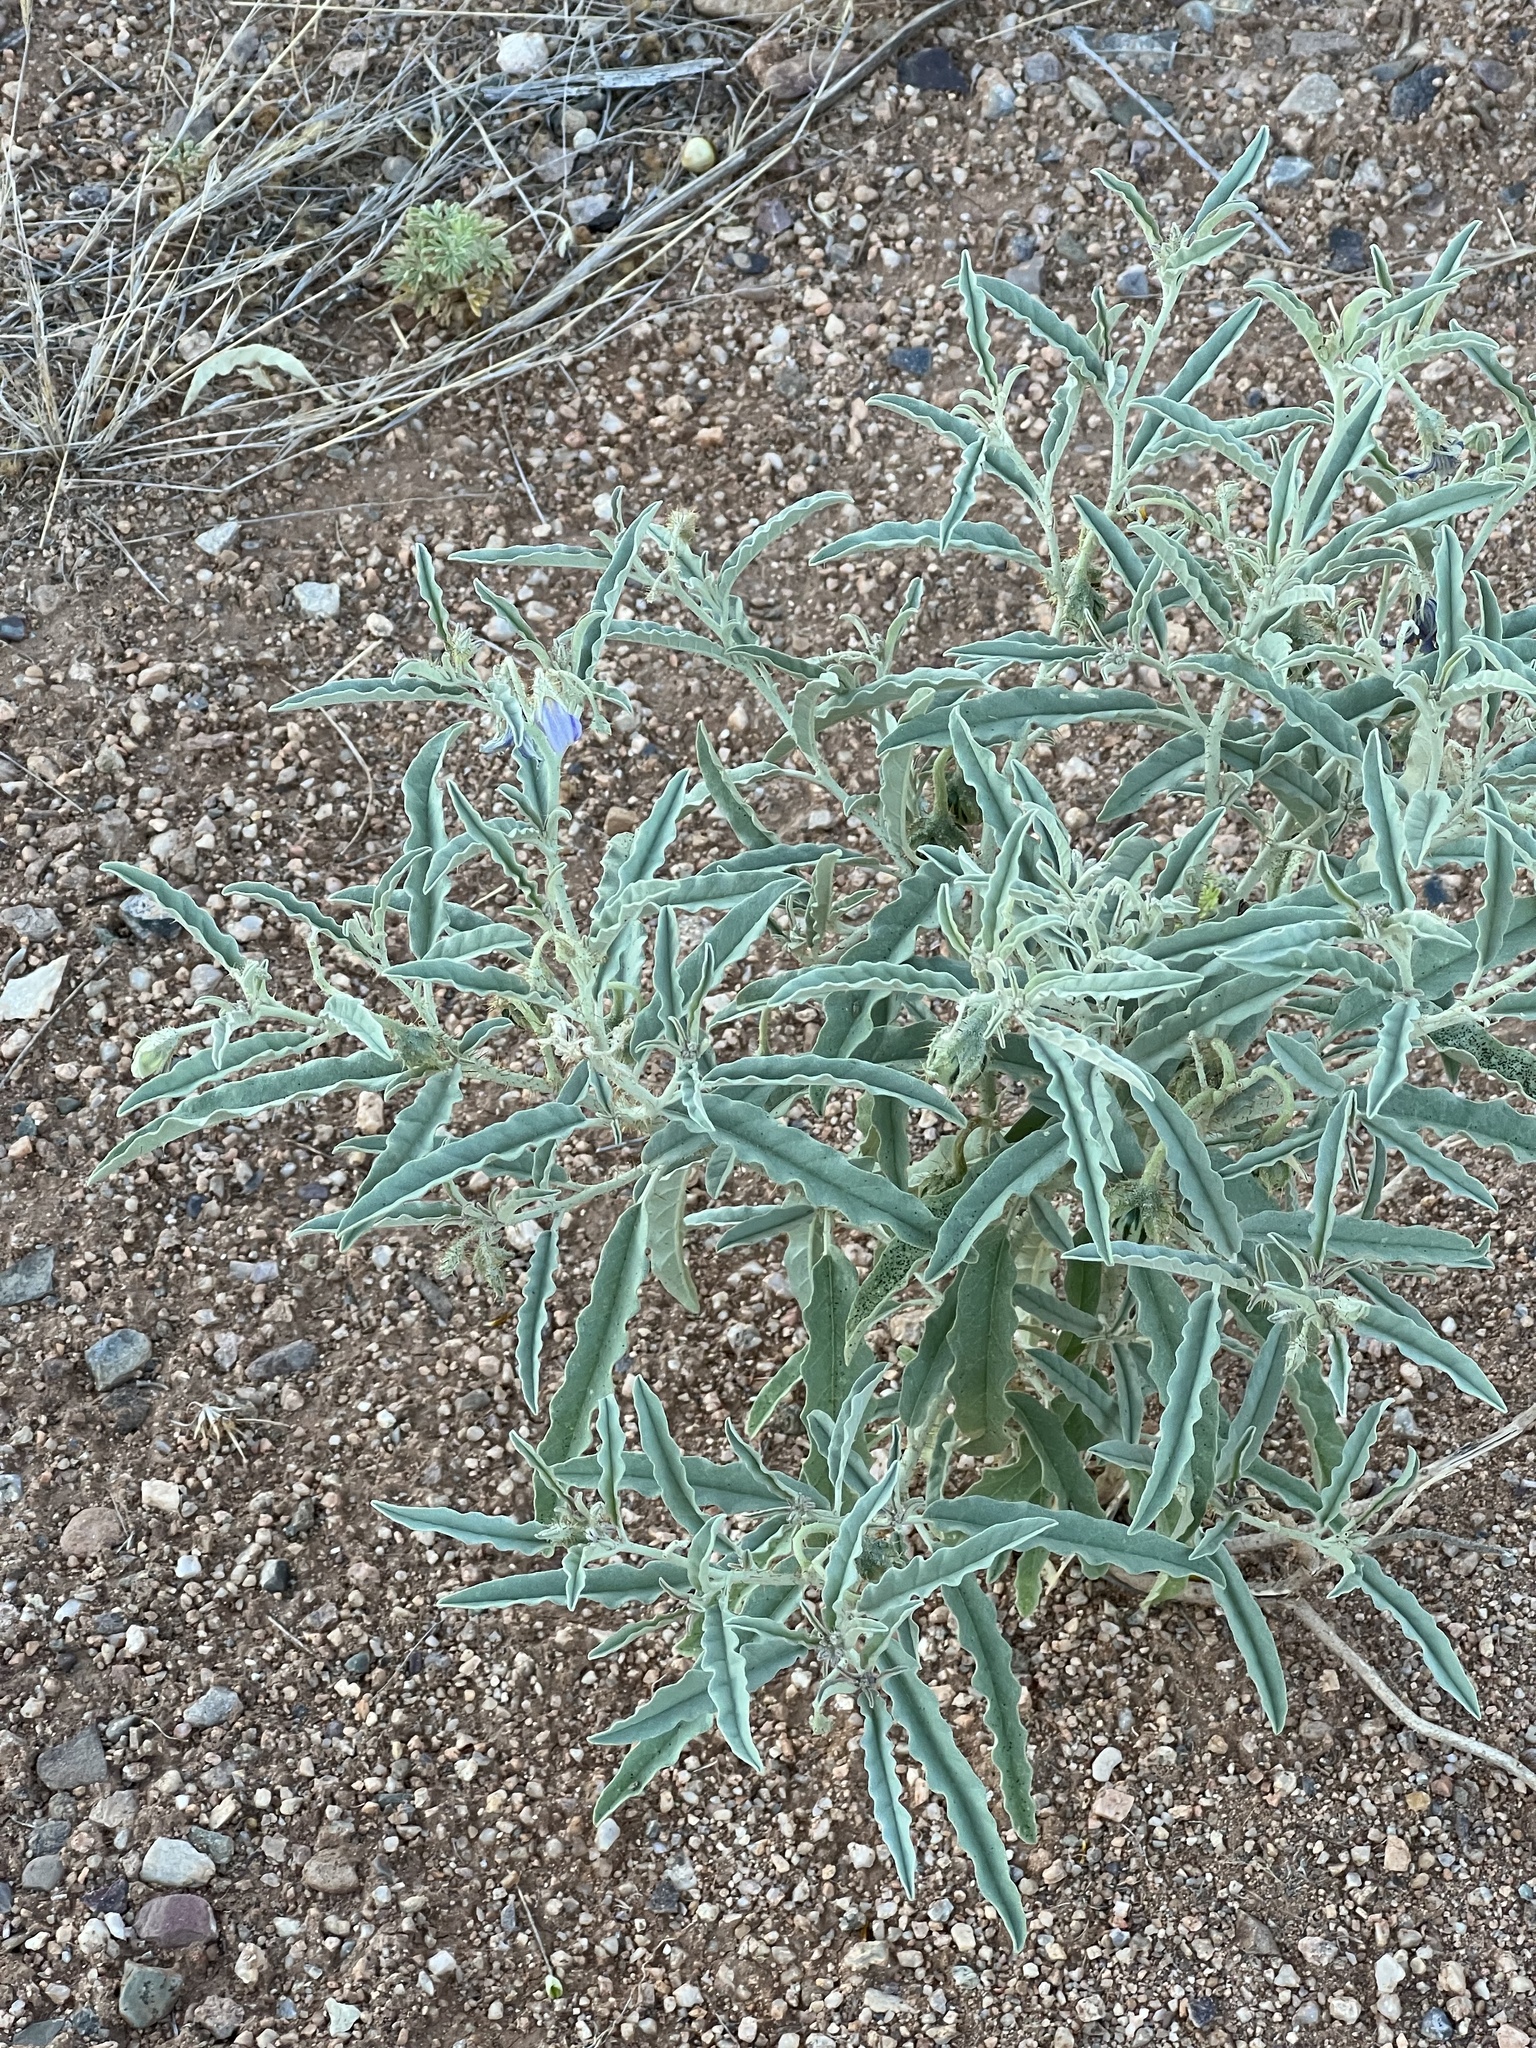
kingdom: Plantae
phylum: Tracheophyta
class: Magnoliopsida
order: Solanales
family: Solanaceae
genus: Solanum
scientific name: Solanum elaeagnifolium
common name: Silverleaf nightshade
